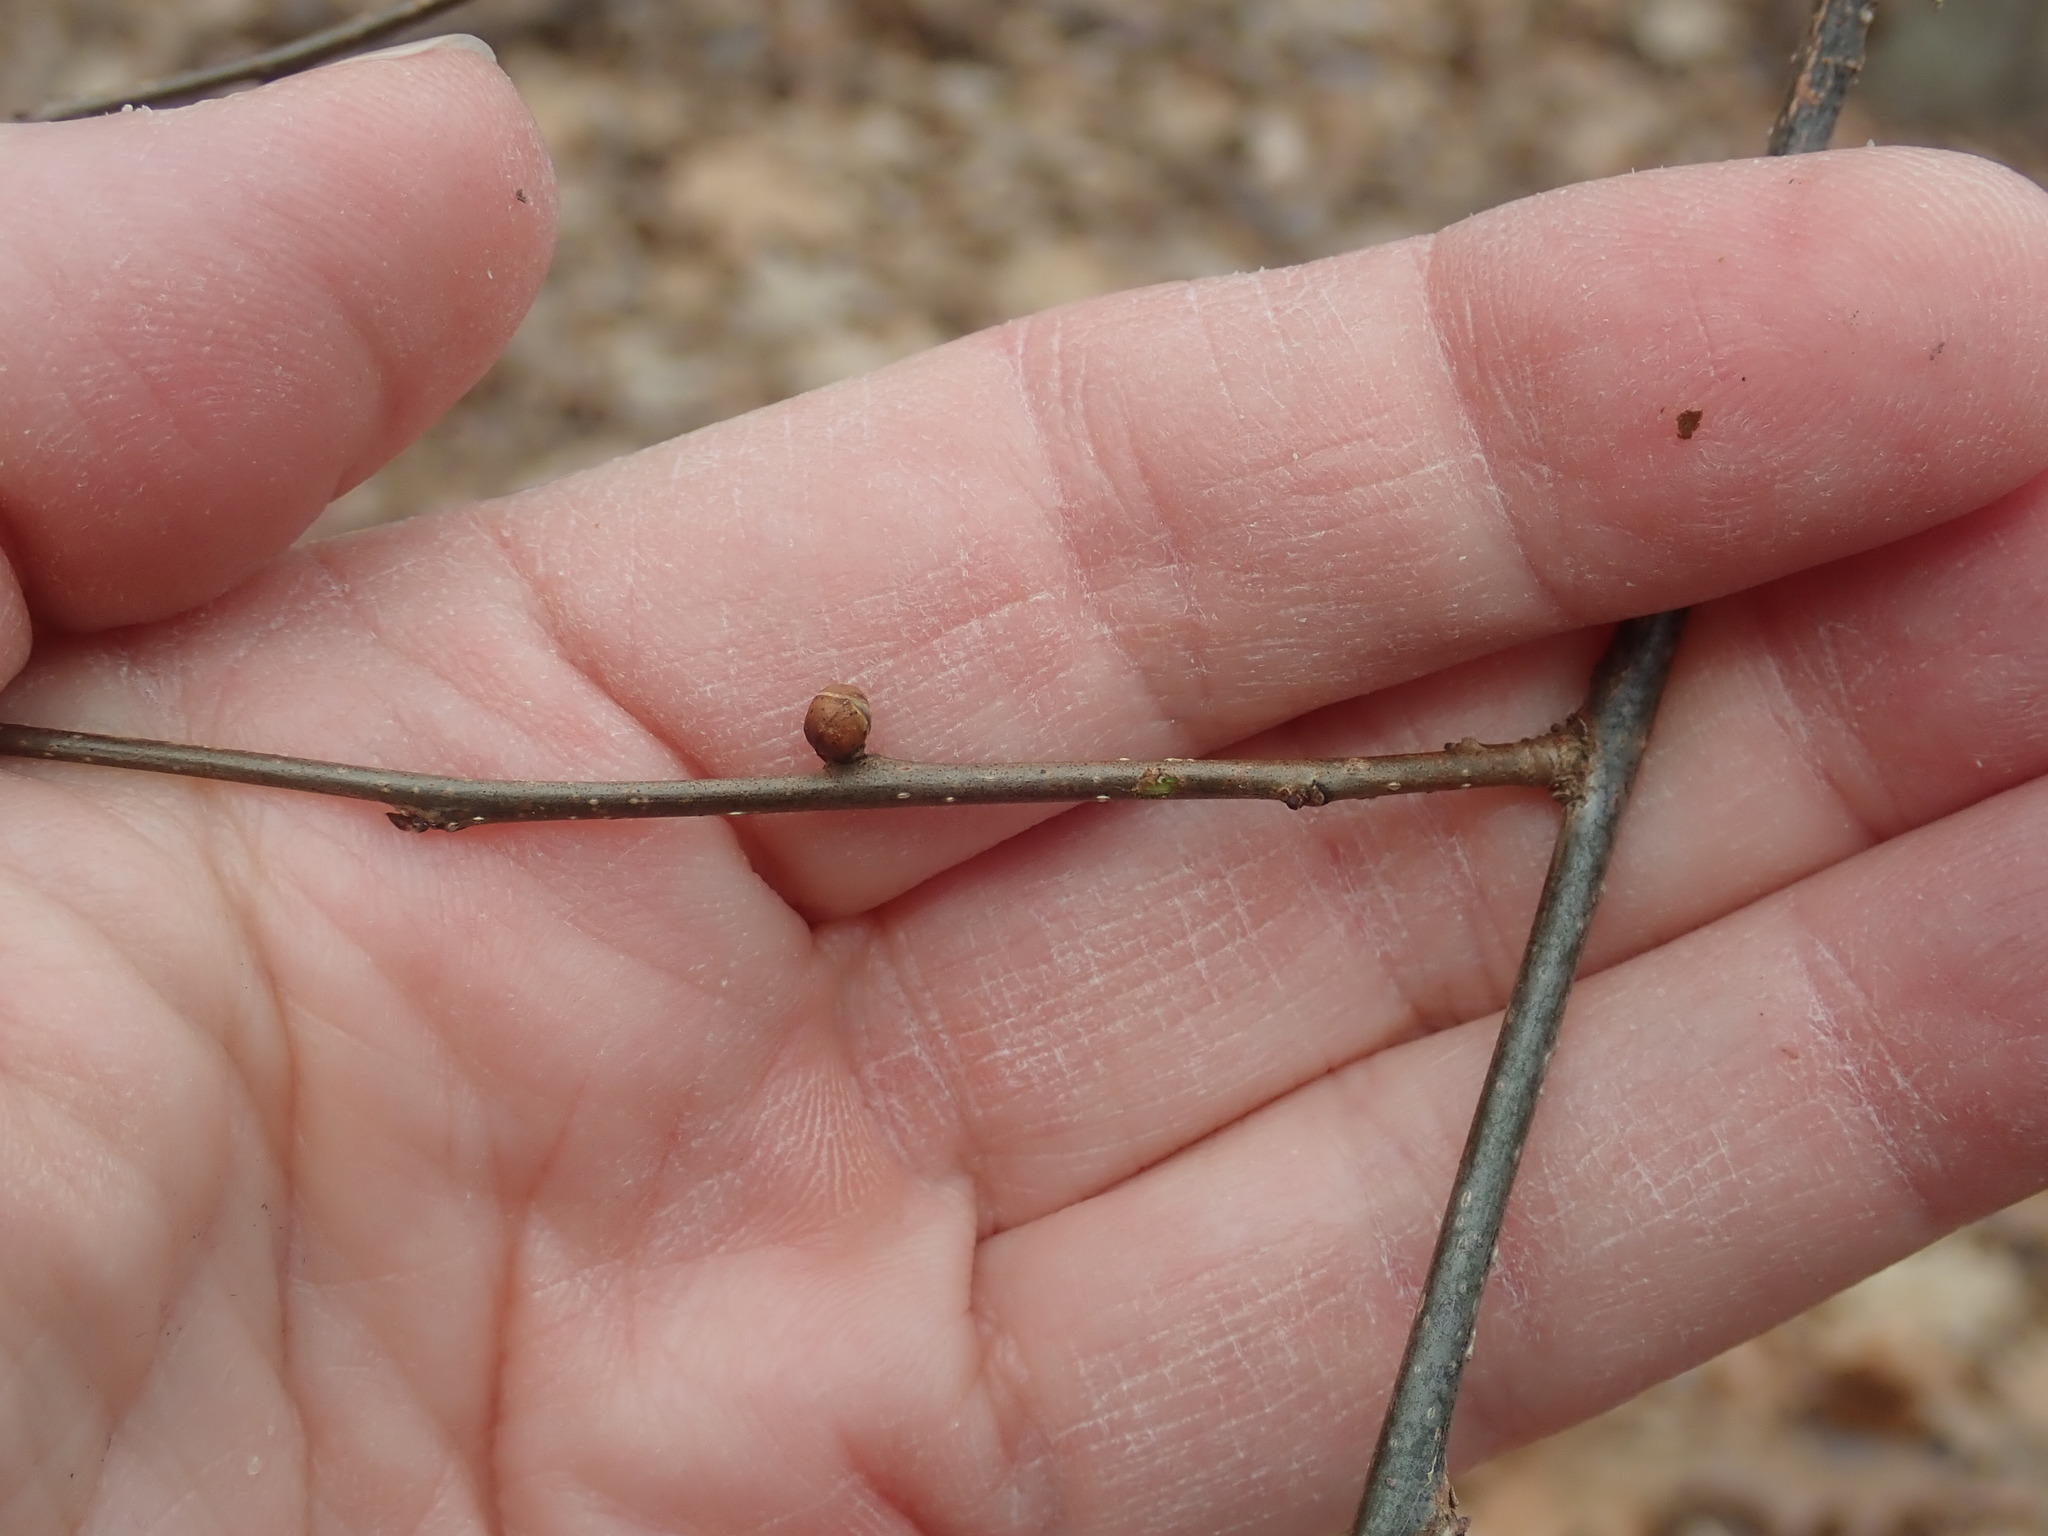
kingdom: Plantae
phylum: Tracheophyta
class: Magnoliopsida
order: Laurales
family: Lauraceae
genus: Lindera
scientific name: Lindera benzoin
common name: Spicebush
